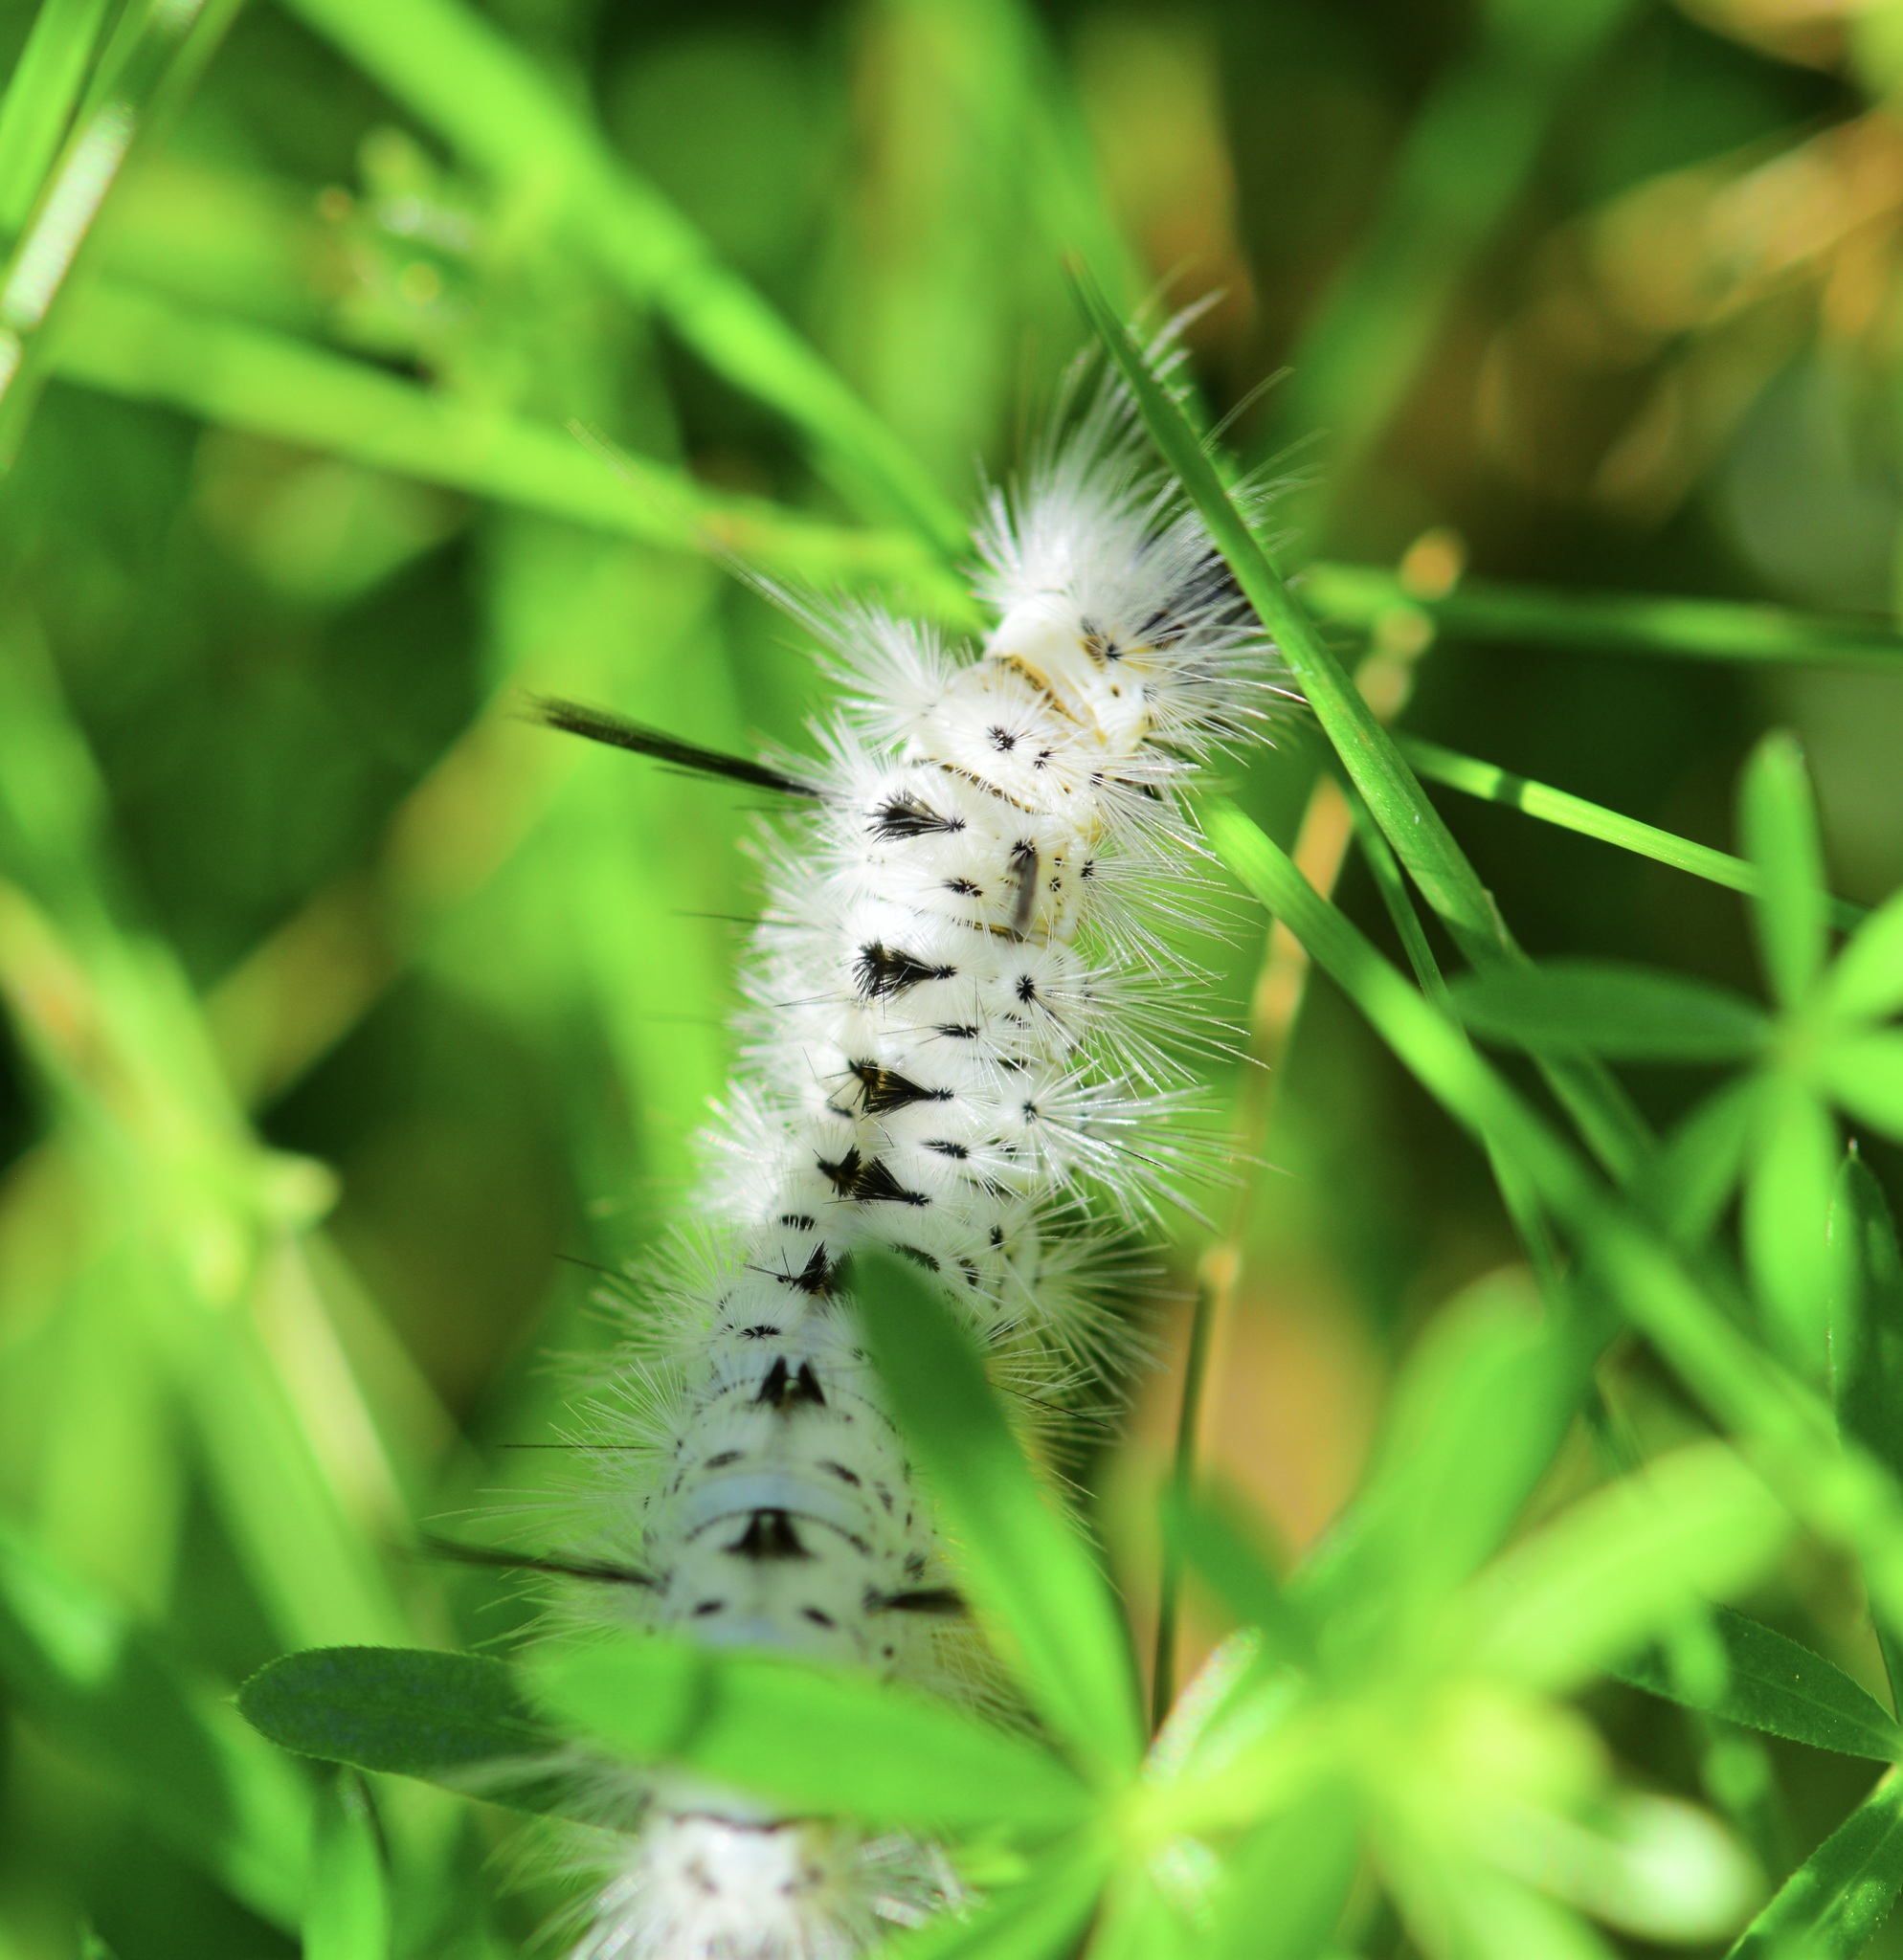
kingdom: Animalia
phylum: Arthropoda
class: Insecta
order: Lepidoptera
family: Erebidae
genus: Lophocampa
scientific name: Lophocampa caryae
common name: Hickory tussock moth
